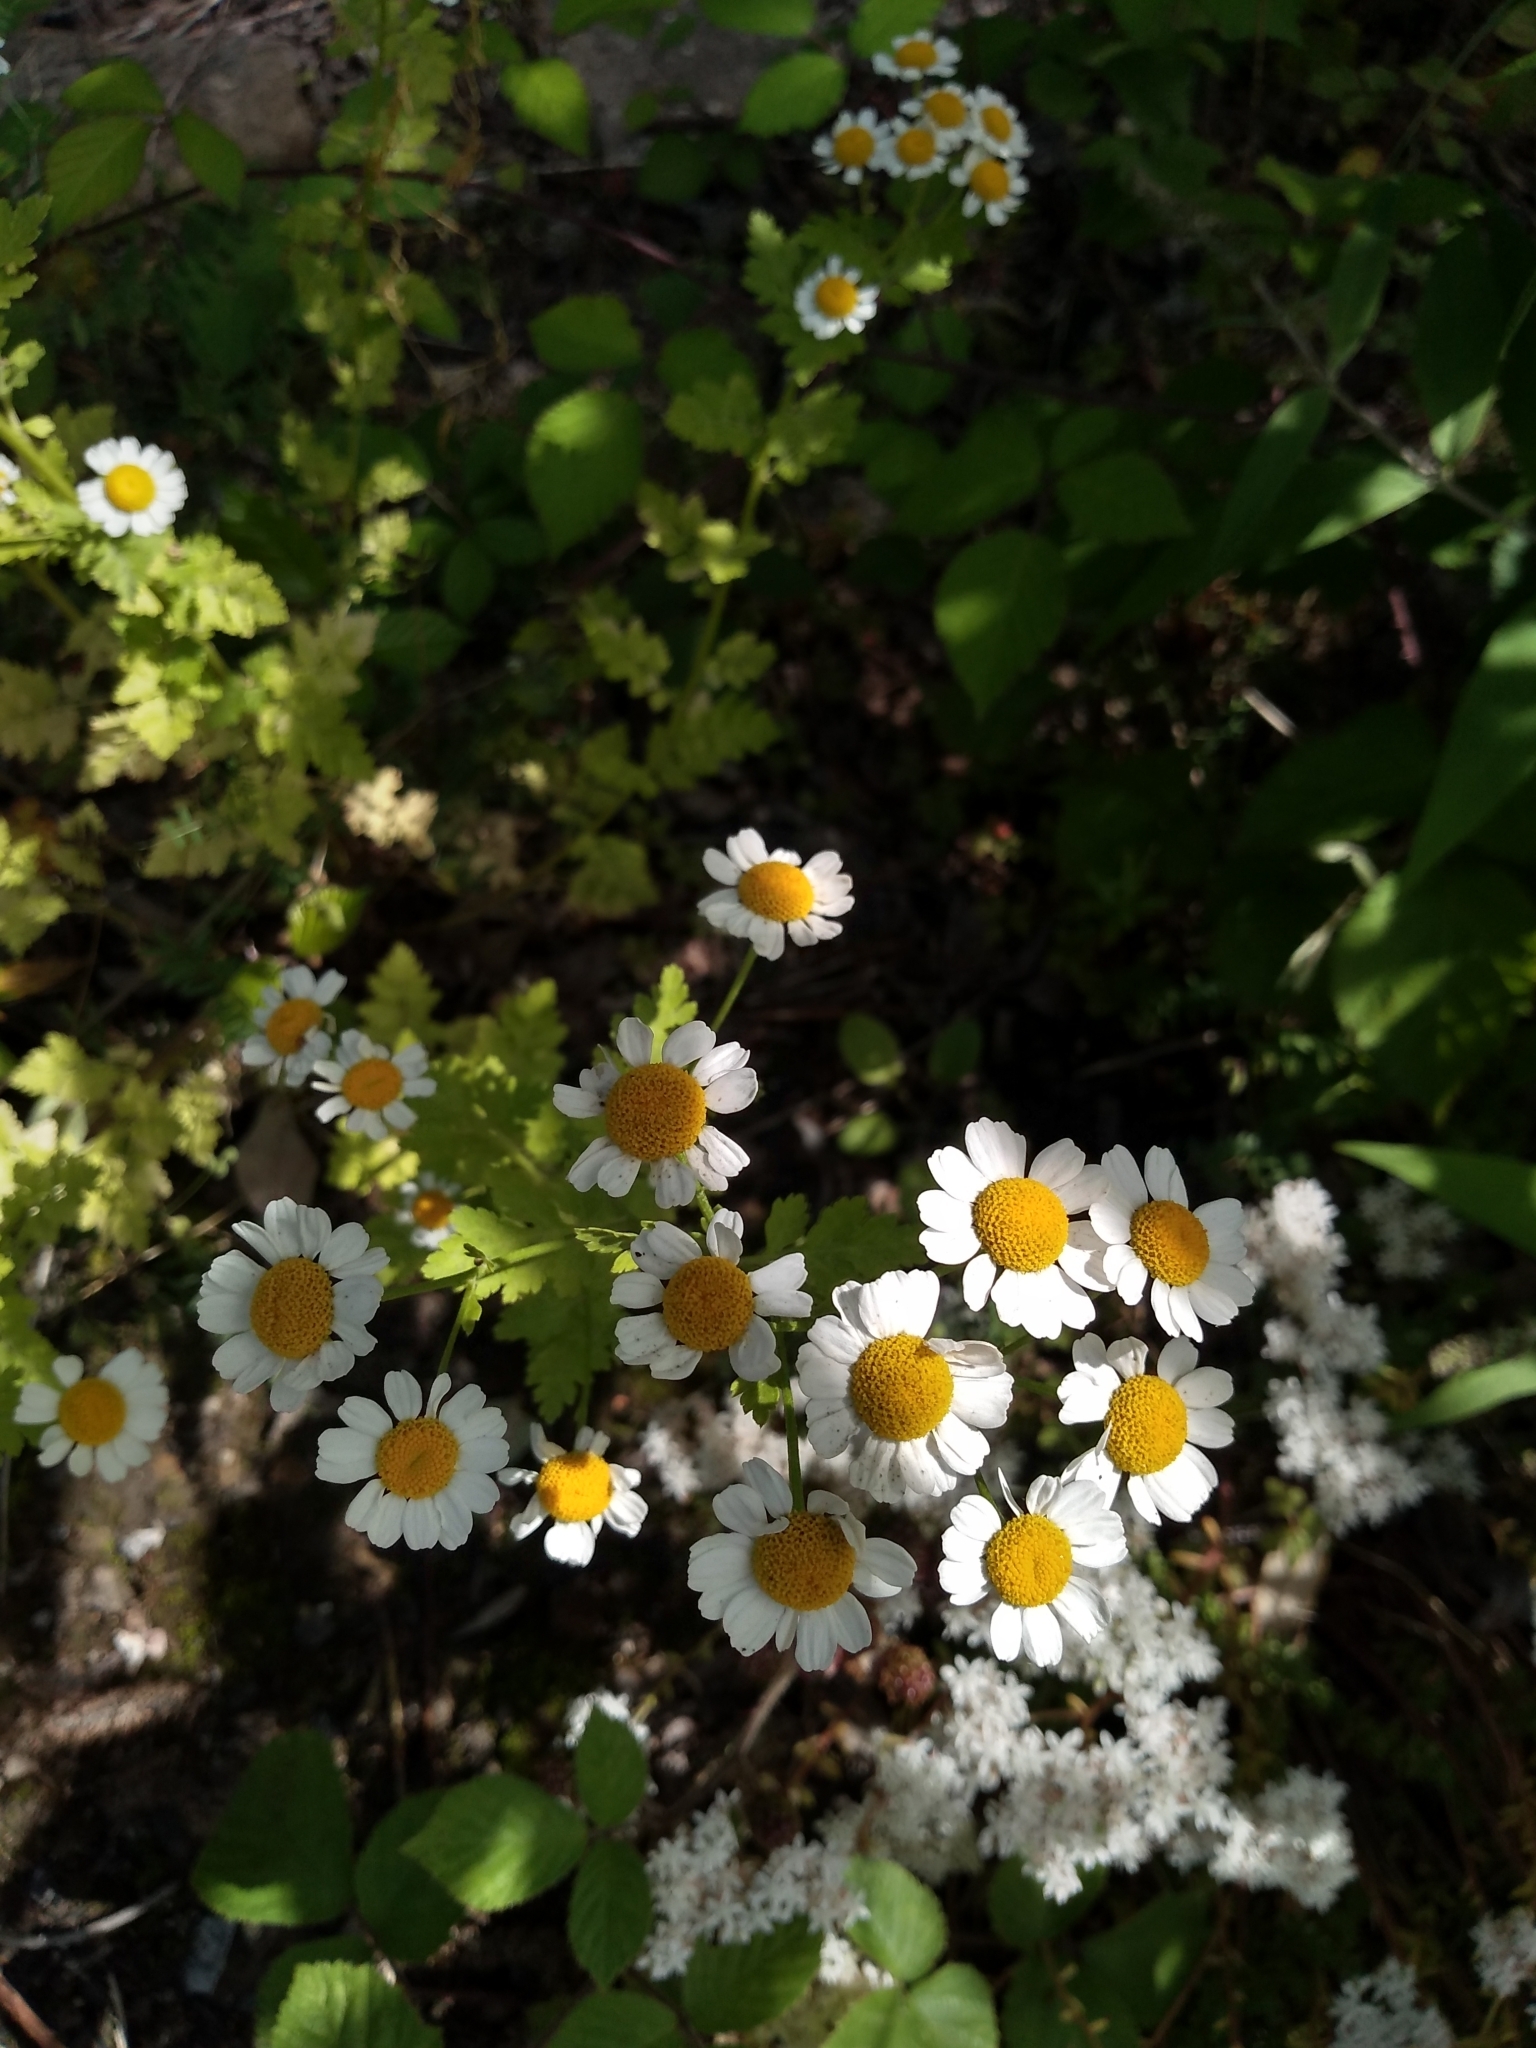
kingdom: Plantae
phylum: Tracheophyta
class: Magnoliopsida
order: Asterales
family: Asteraceae
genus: Tanacetum
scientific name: Tanacetum parthenium
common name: Feverfew
